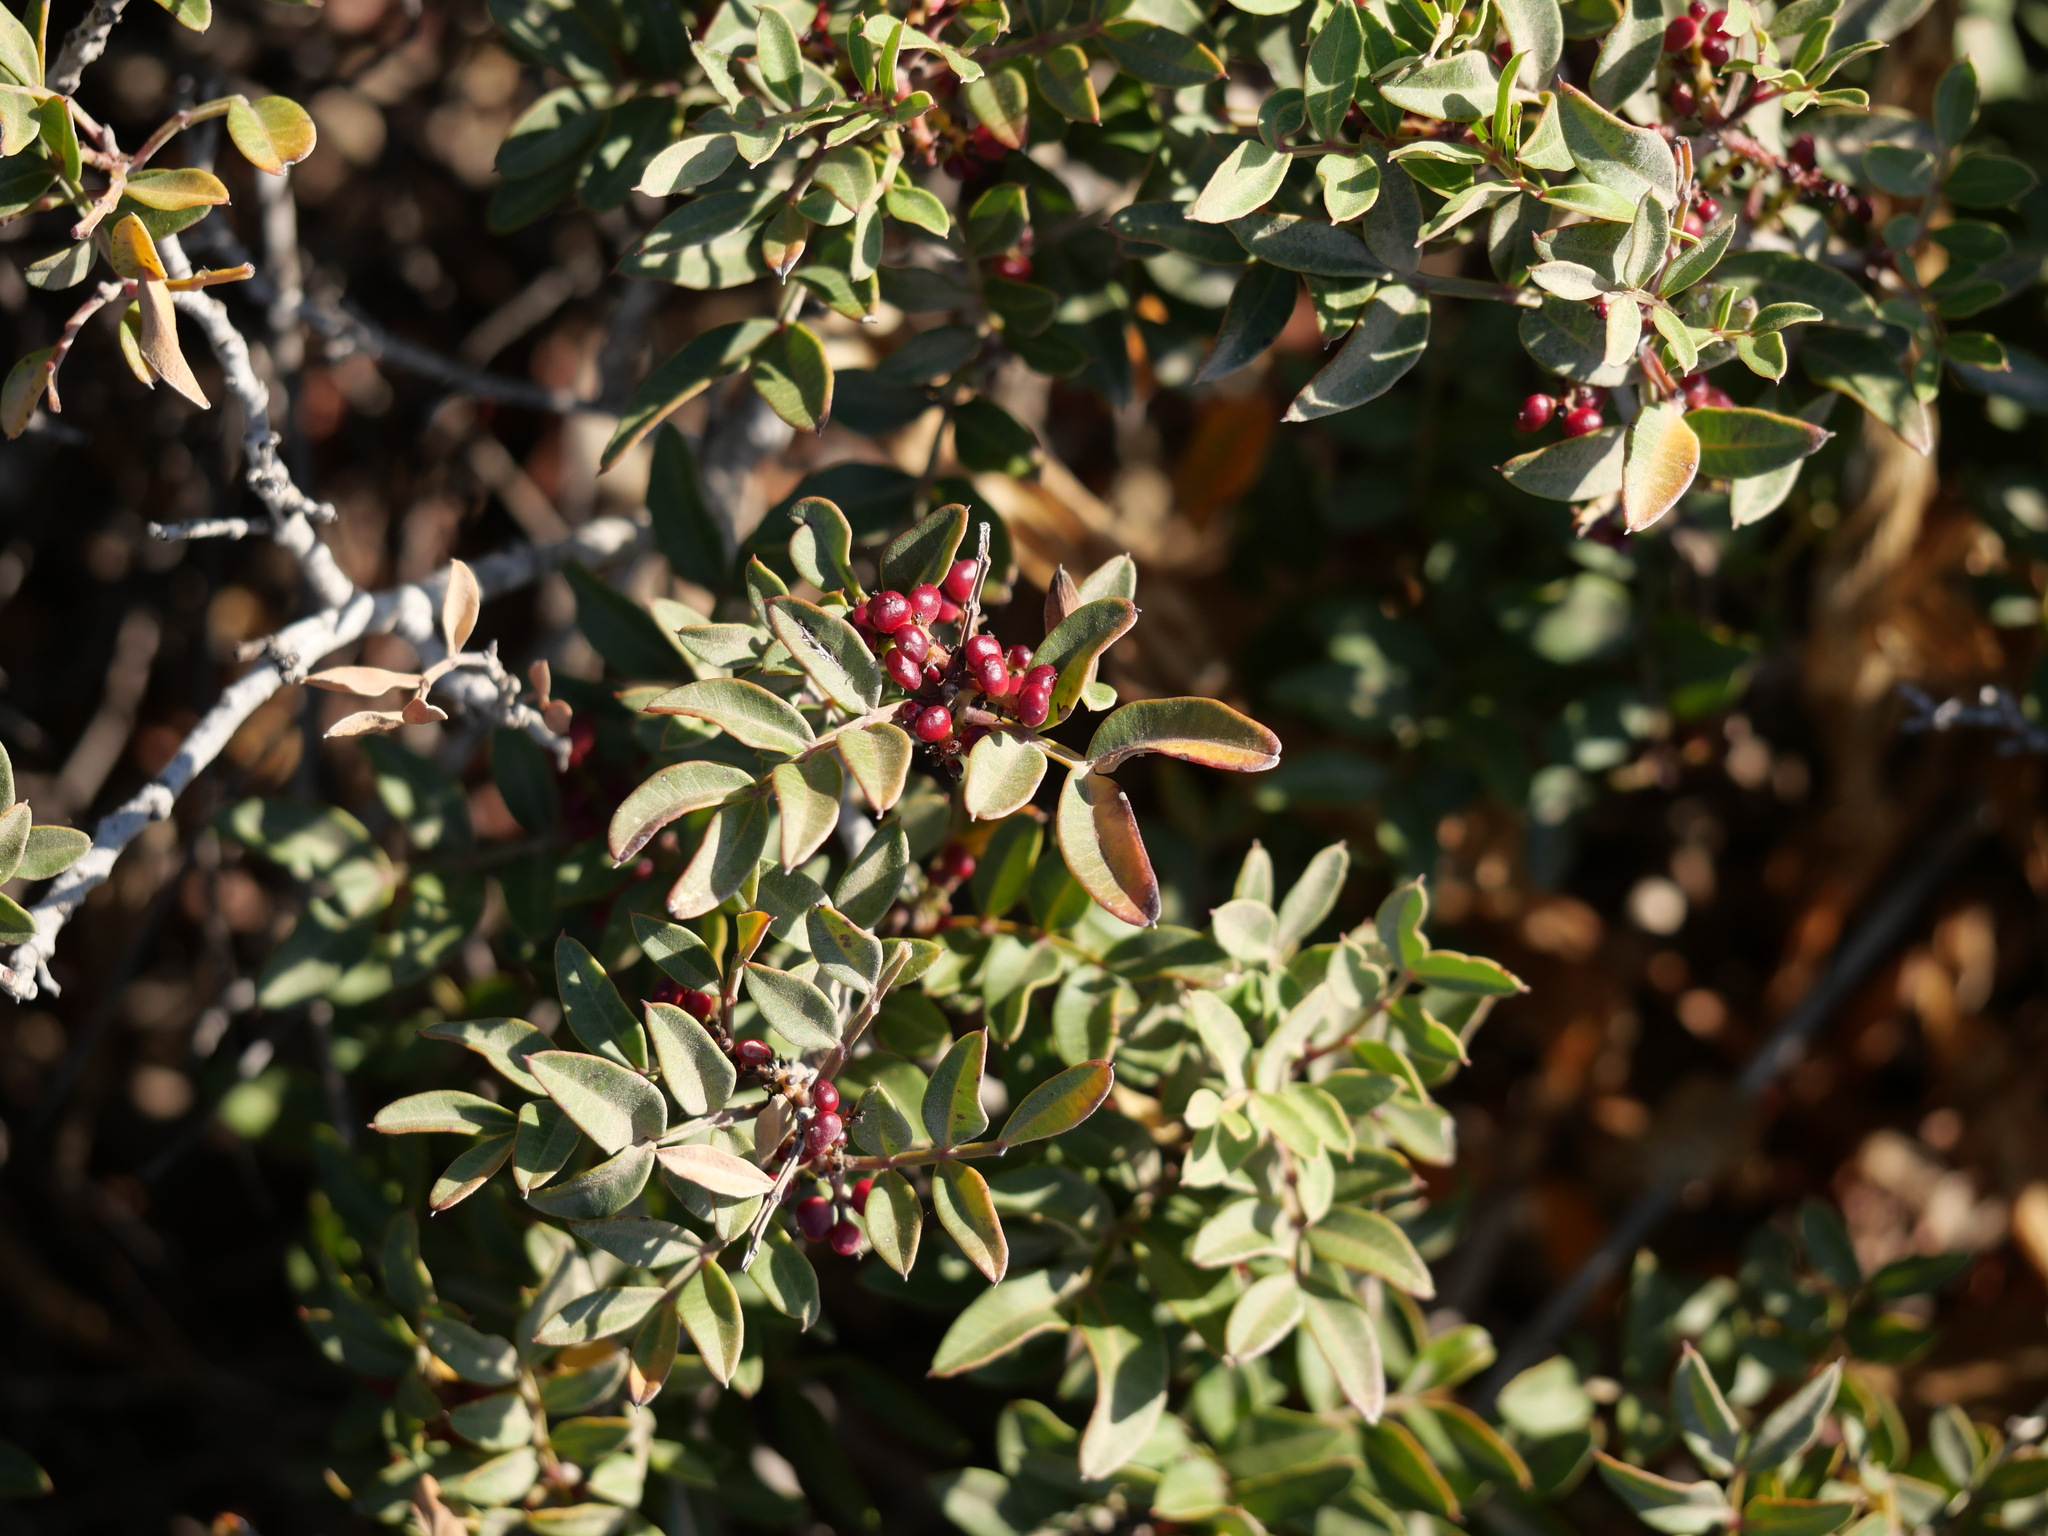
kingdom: Plantae
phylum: Tracheophyta
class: Magnoliopsida
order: Sapindales
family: Anacardiaceae
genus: Pistacia
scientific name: Pistacia lentiscus
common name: Lentisk
